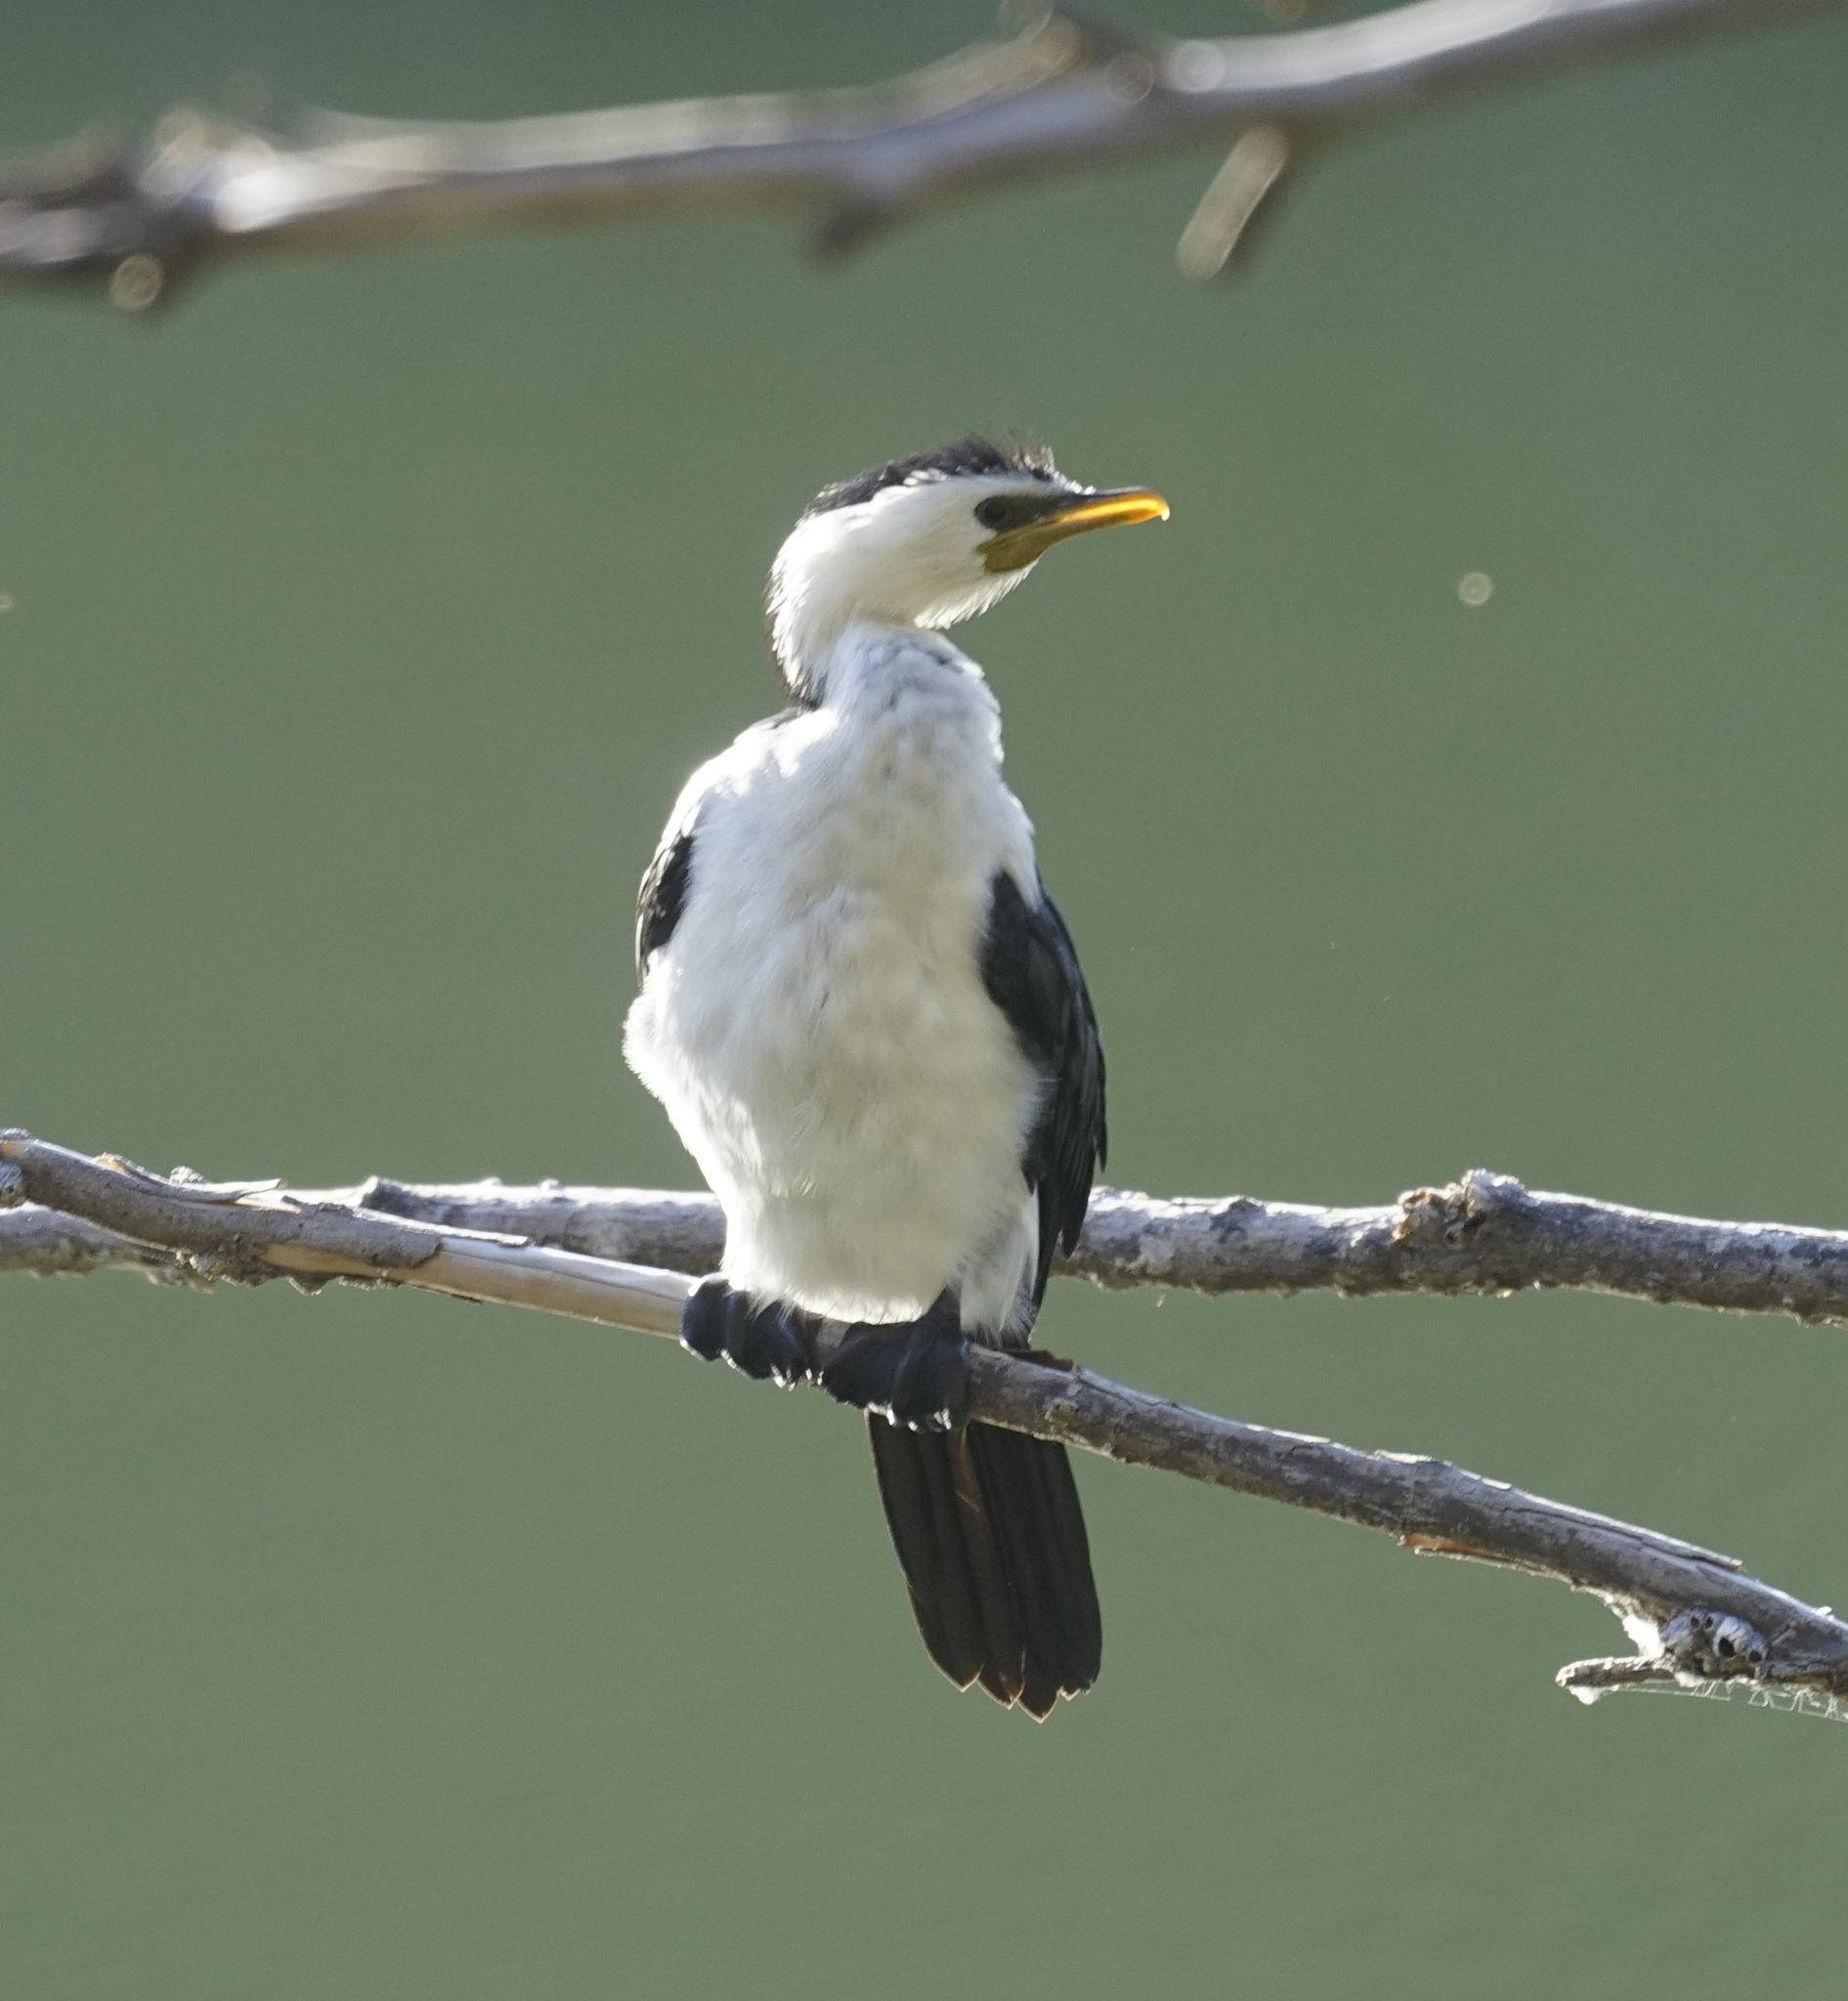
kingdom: Animalia
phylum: Chordata
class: Aves
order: Suliformes
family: Phalacrocoracidae
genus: Microcarbo
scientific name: Microcarbo melanoleucos
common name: Little pied cormorant
